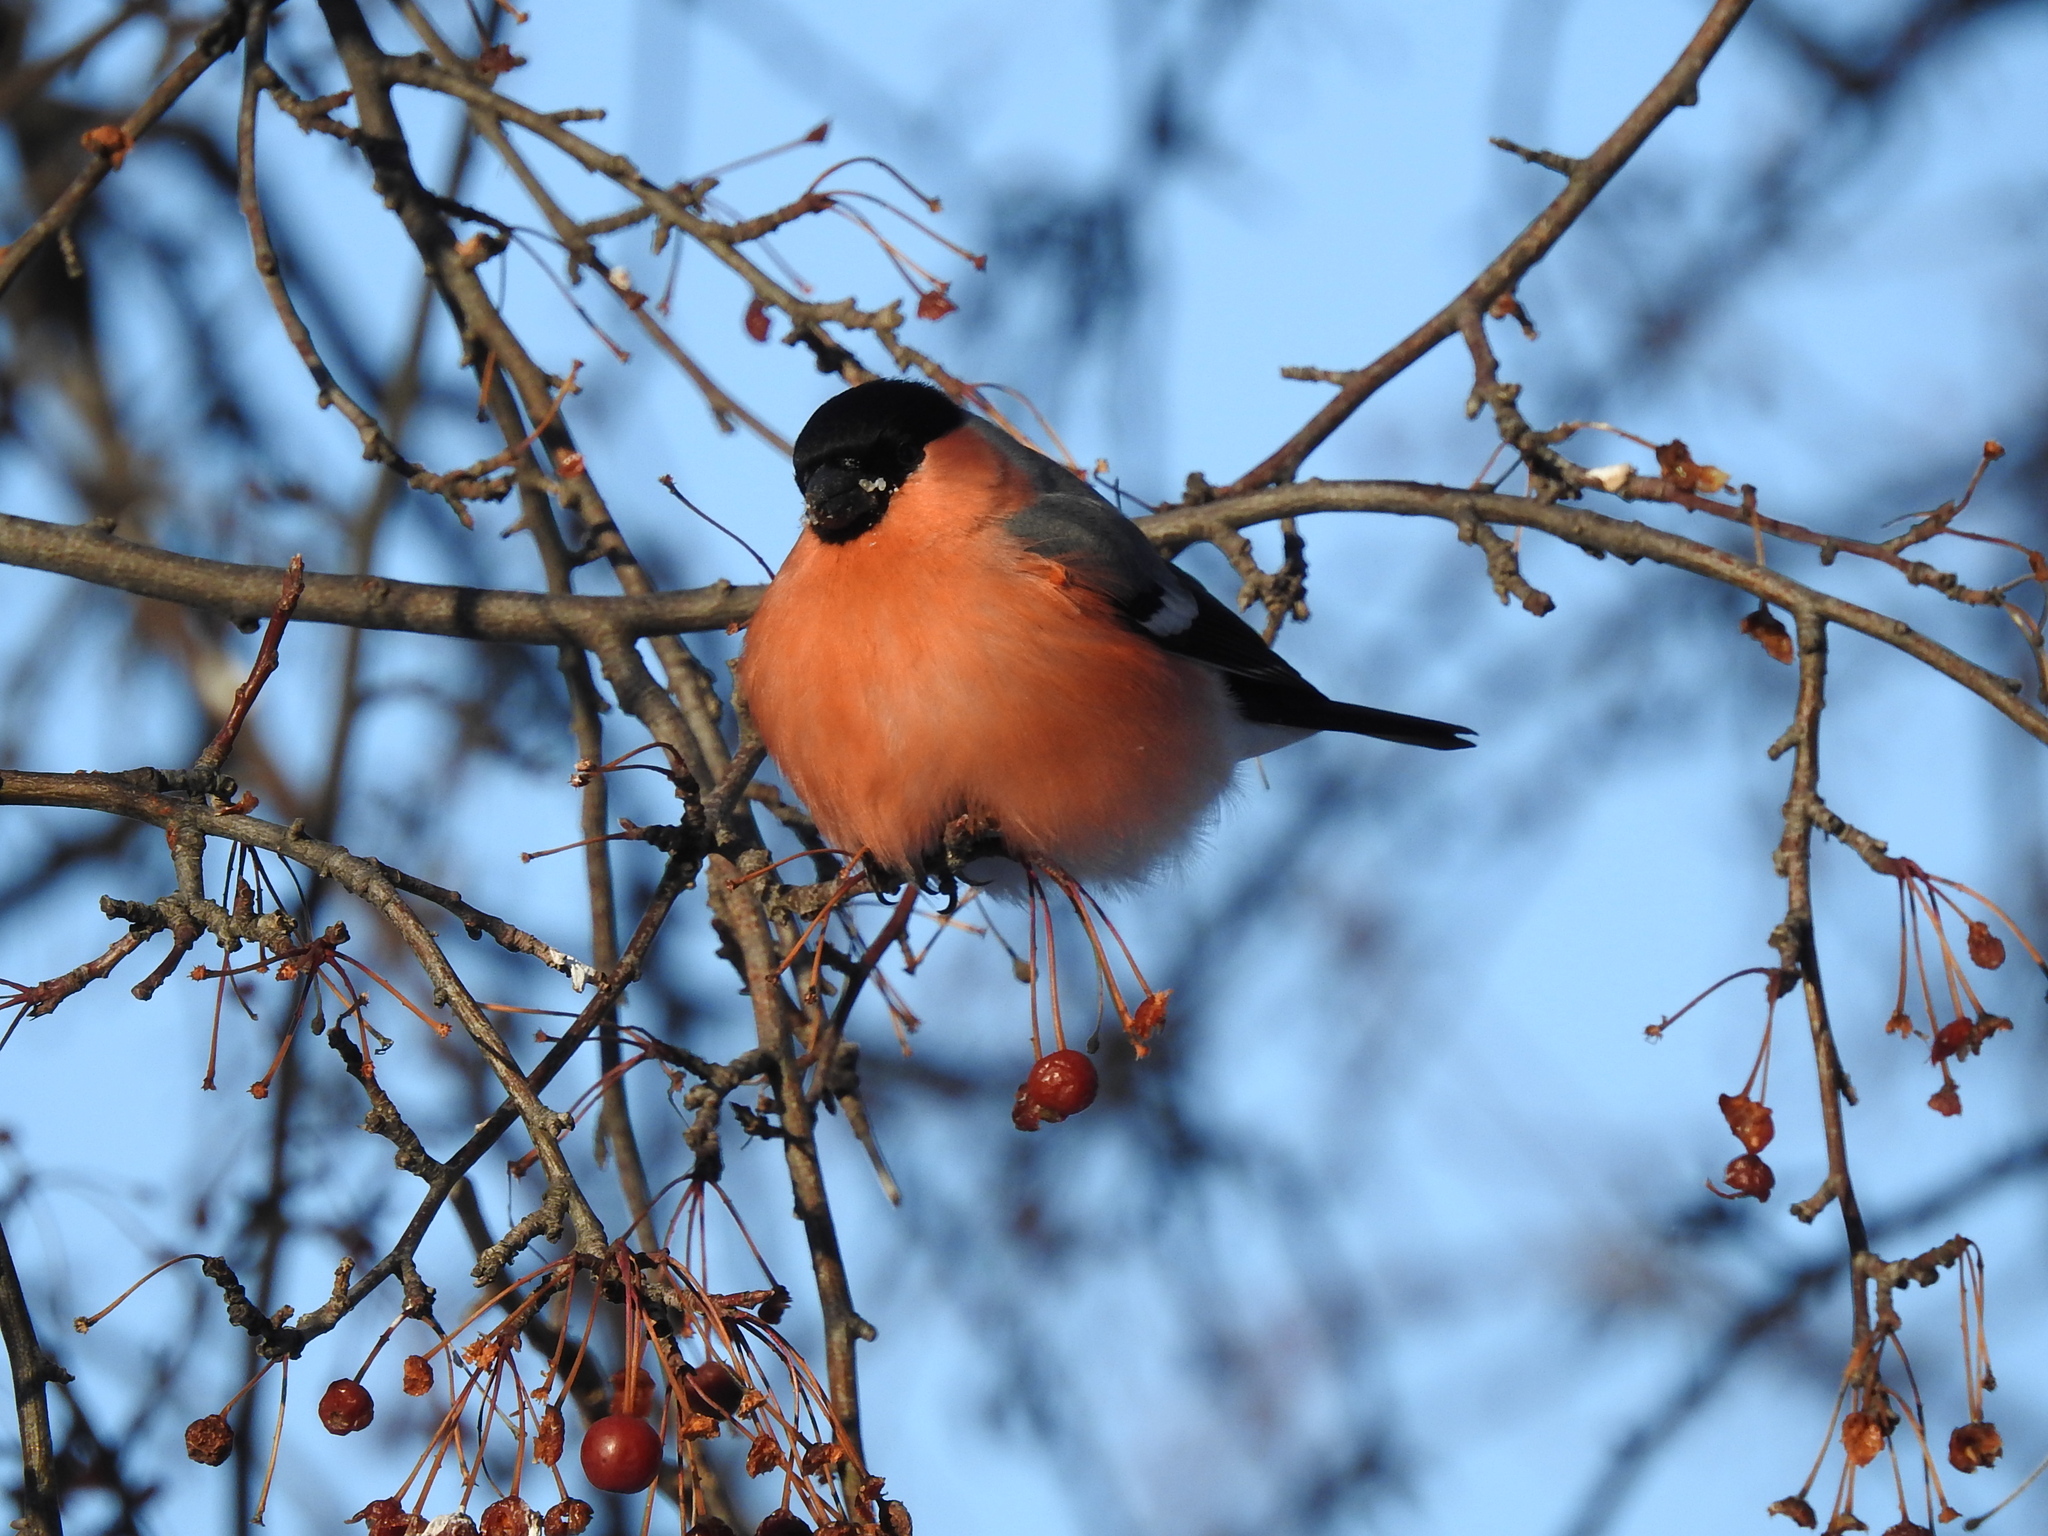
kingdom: Animalia
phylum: Chordata
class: Aves
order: Passeriformes
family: Fringillidae
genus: Pyrrhula
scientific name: Pyrrhula pyrrhula
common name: Eurasian bullfinch
